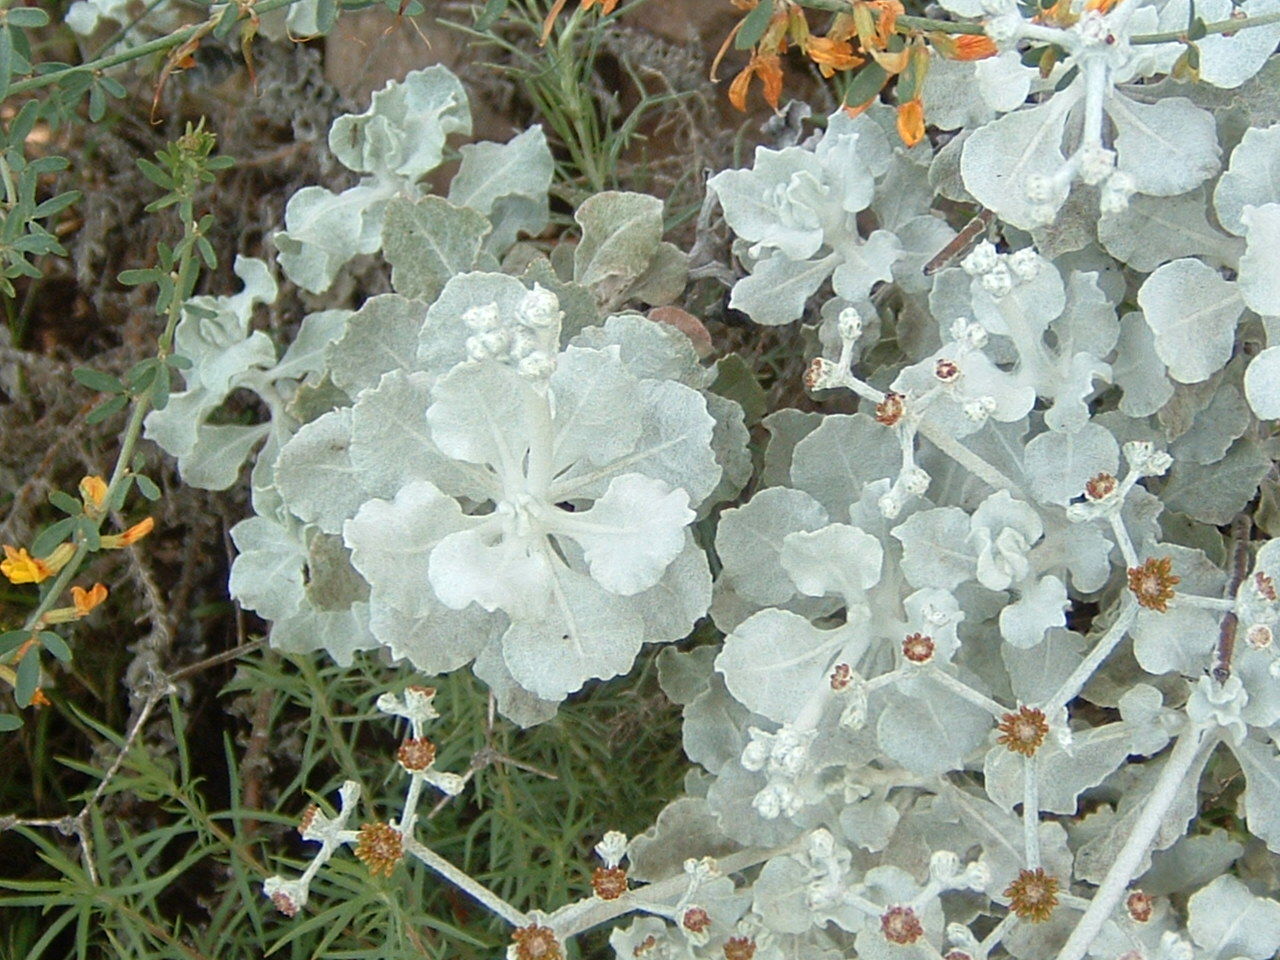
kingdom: Plantae
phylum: Tracheophyta
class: Magnoliopsida
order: Caryophyllales
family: Polygonaceae
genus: Eriogonum
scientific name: Eriogonum crocatum
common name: Saffron wild buckwheat
